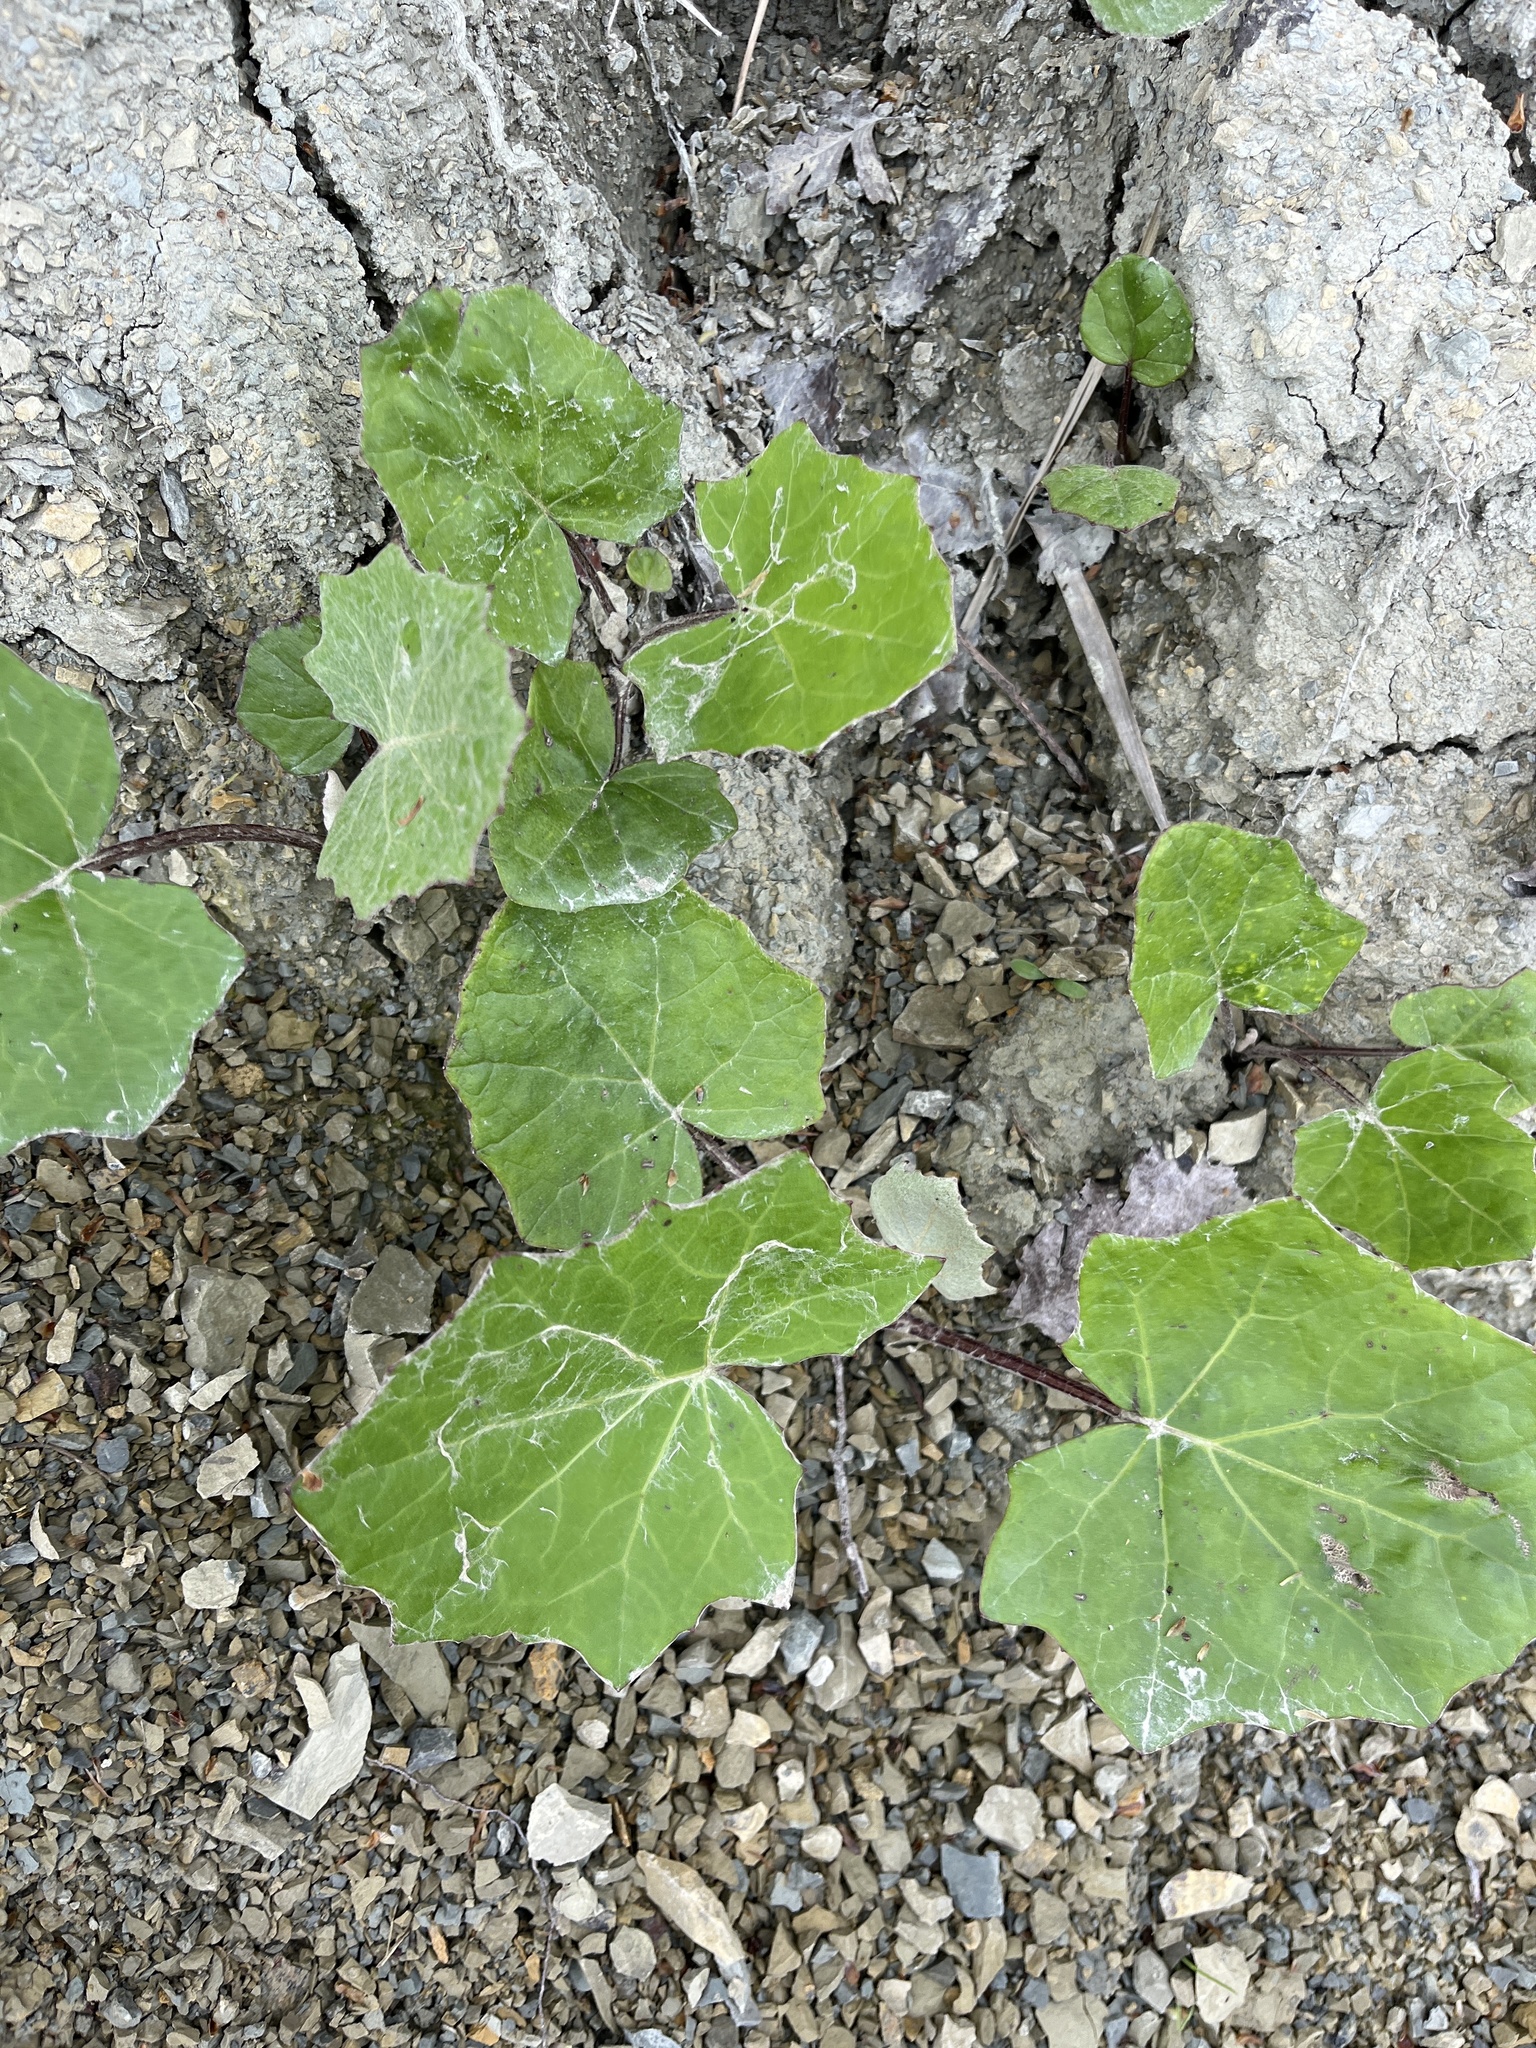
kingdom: Plantae
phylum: Tracheophyta
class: Magnoliopsida
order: Asterales
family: Asteraceae
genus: Tussilago
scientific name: Tussilago farfara
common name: Coltsfoot
